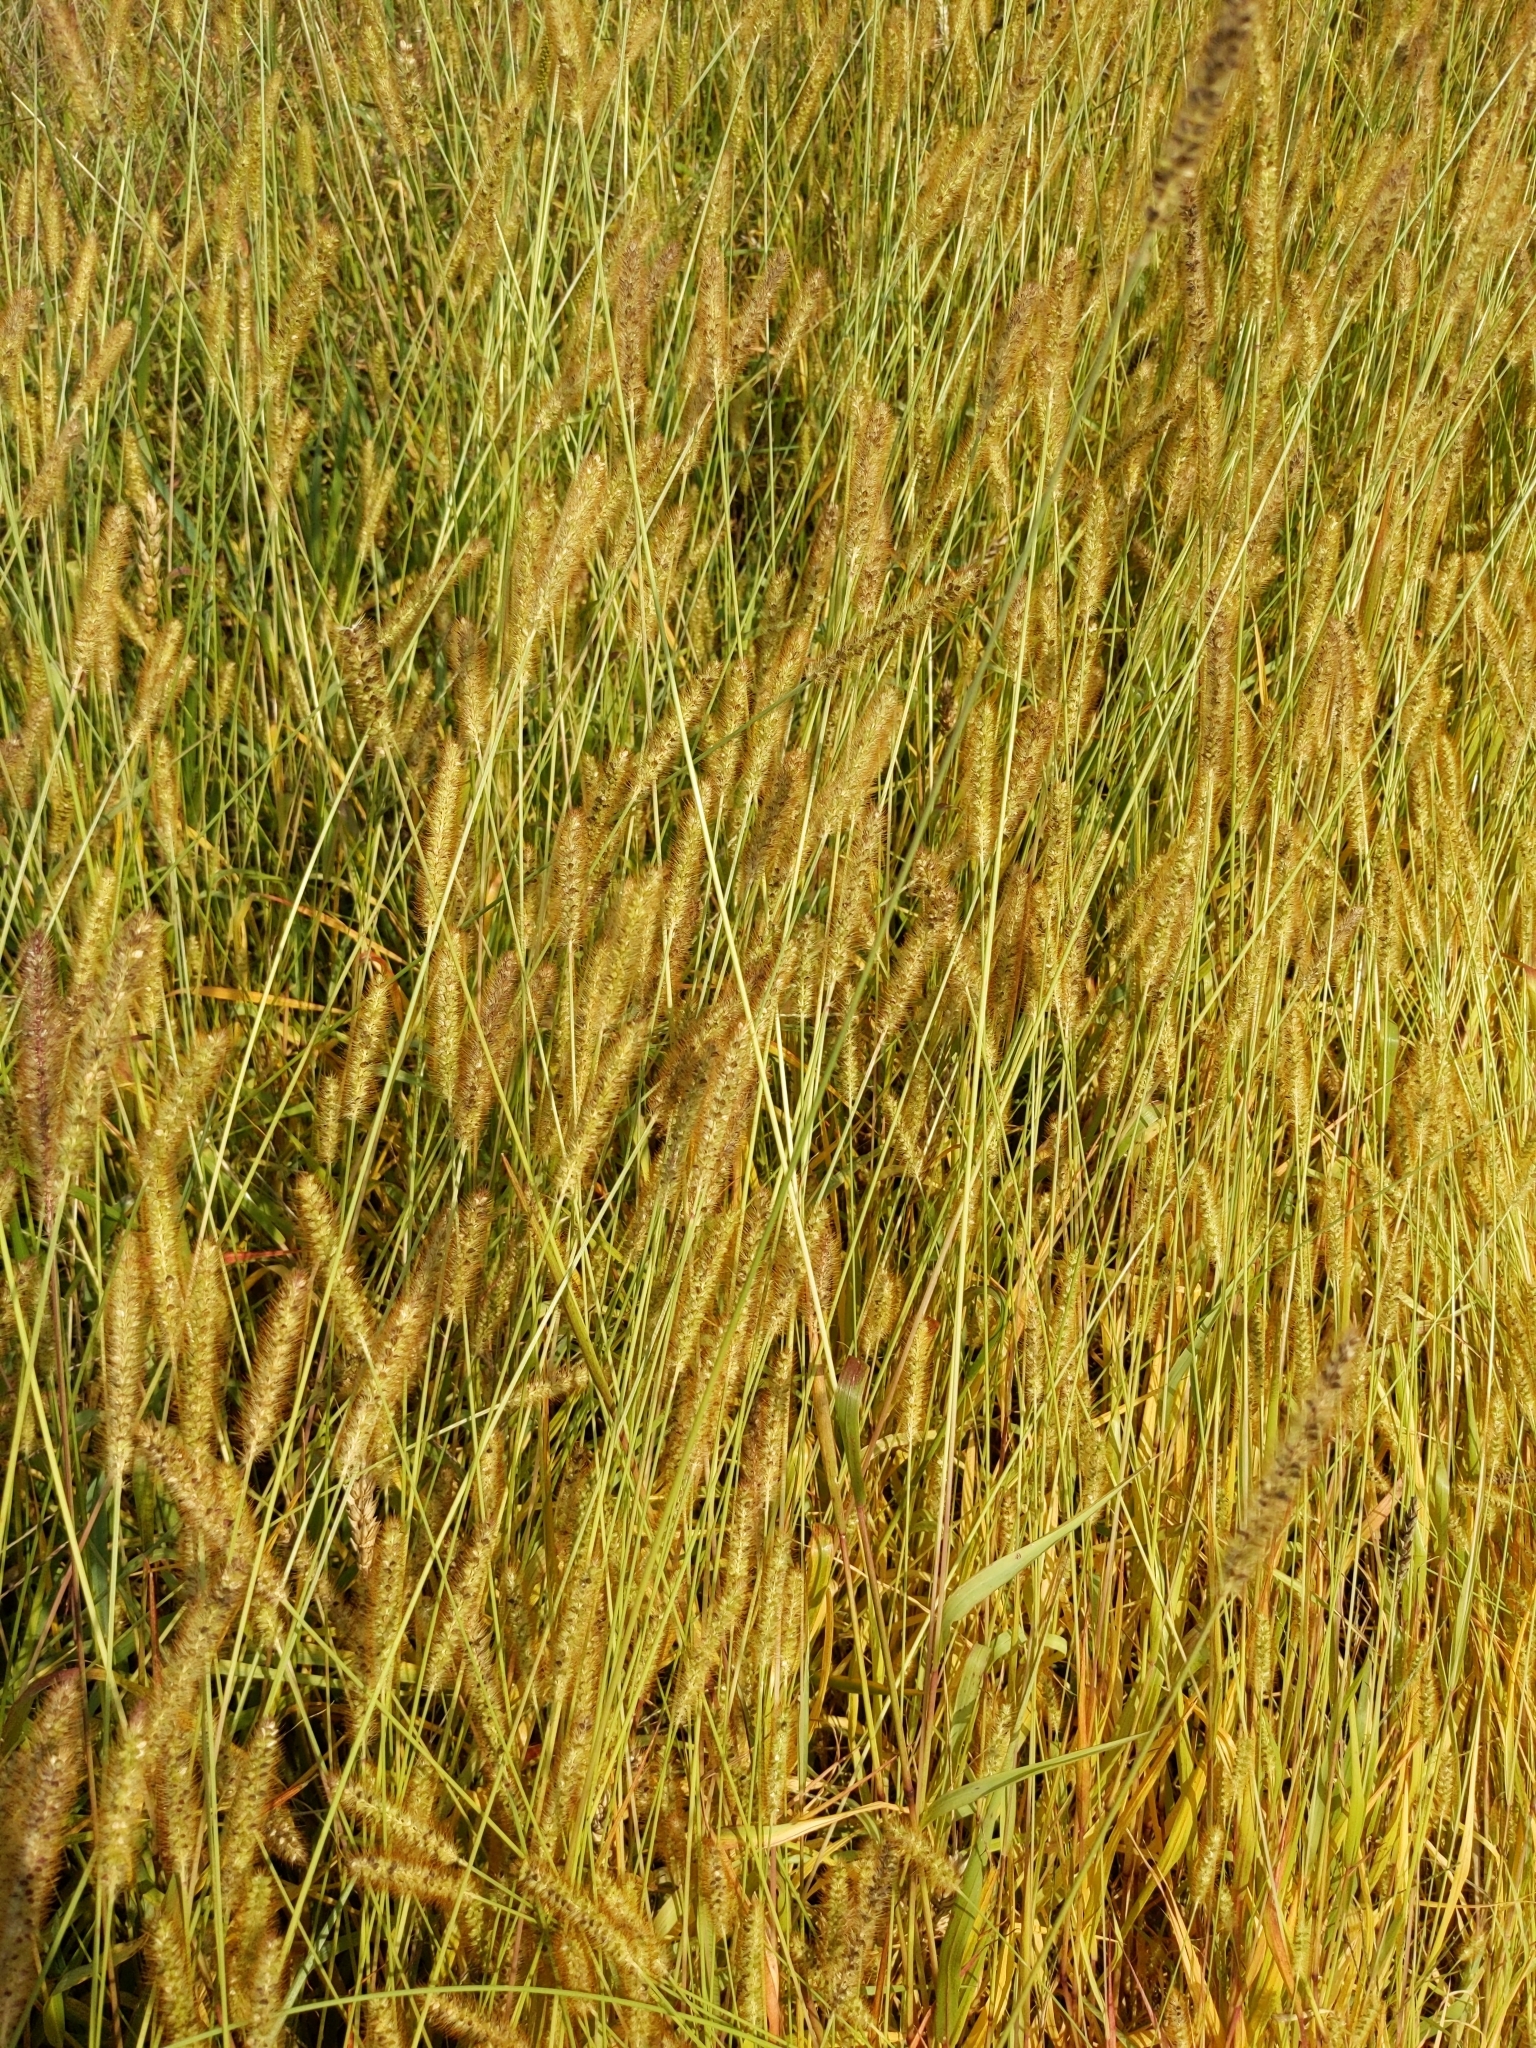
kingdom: Plantae
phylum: Tracheophyta
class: Liliopsida
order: Poales
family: Poaceae
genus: Setaria
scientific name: Setaria pumila
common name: Yellow bristle-grass
